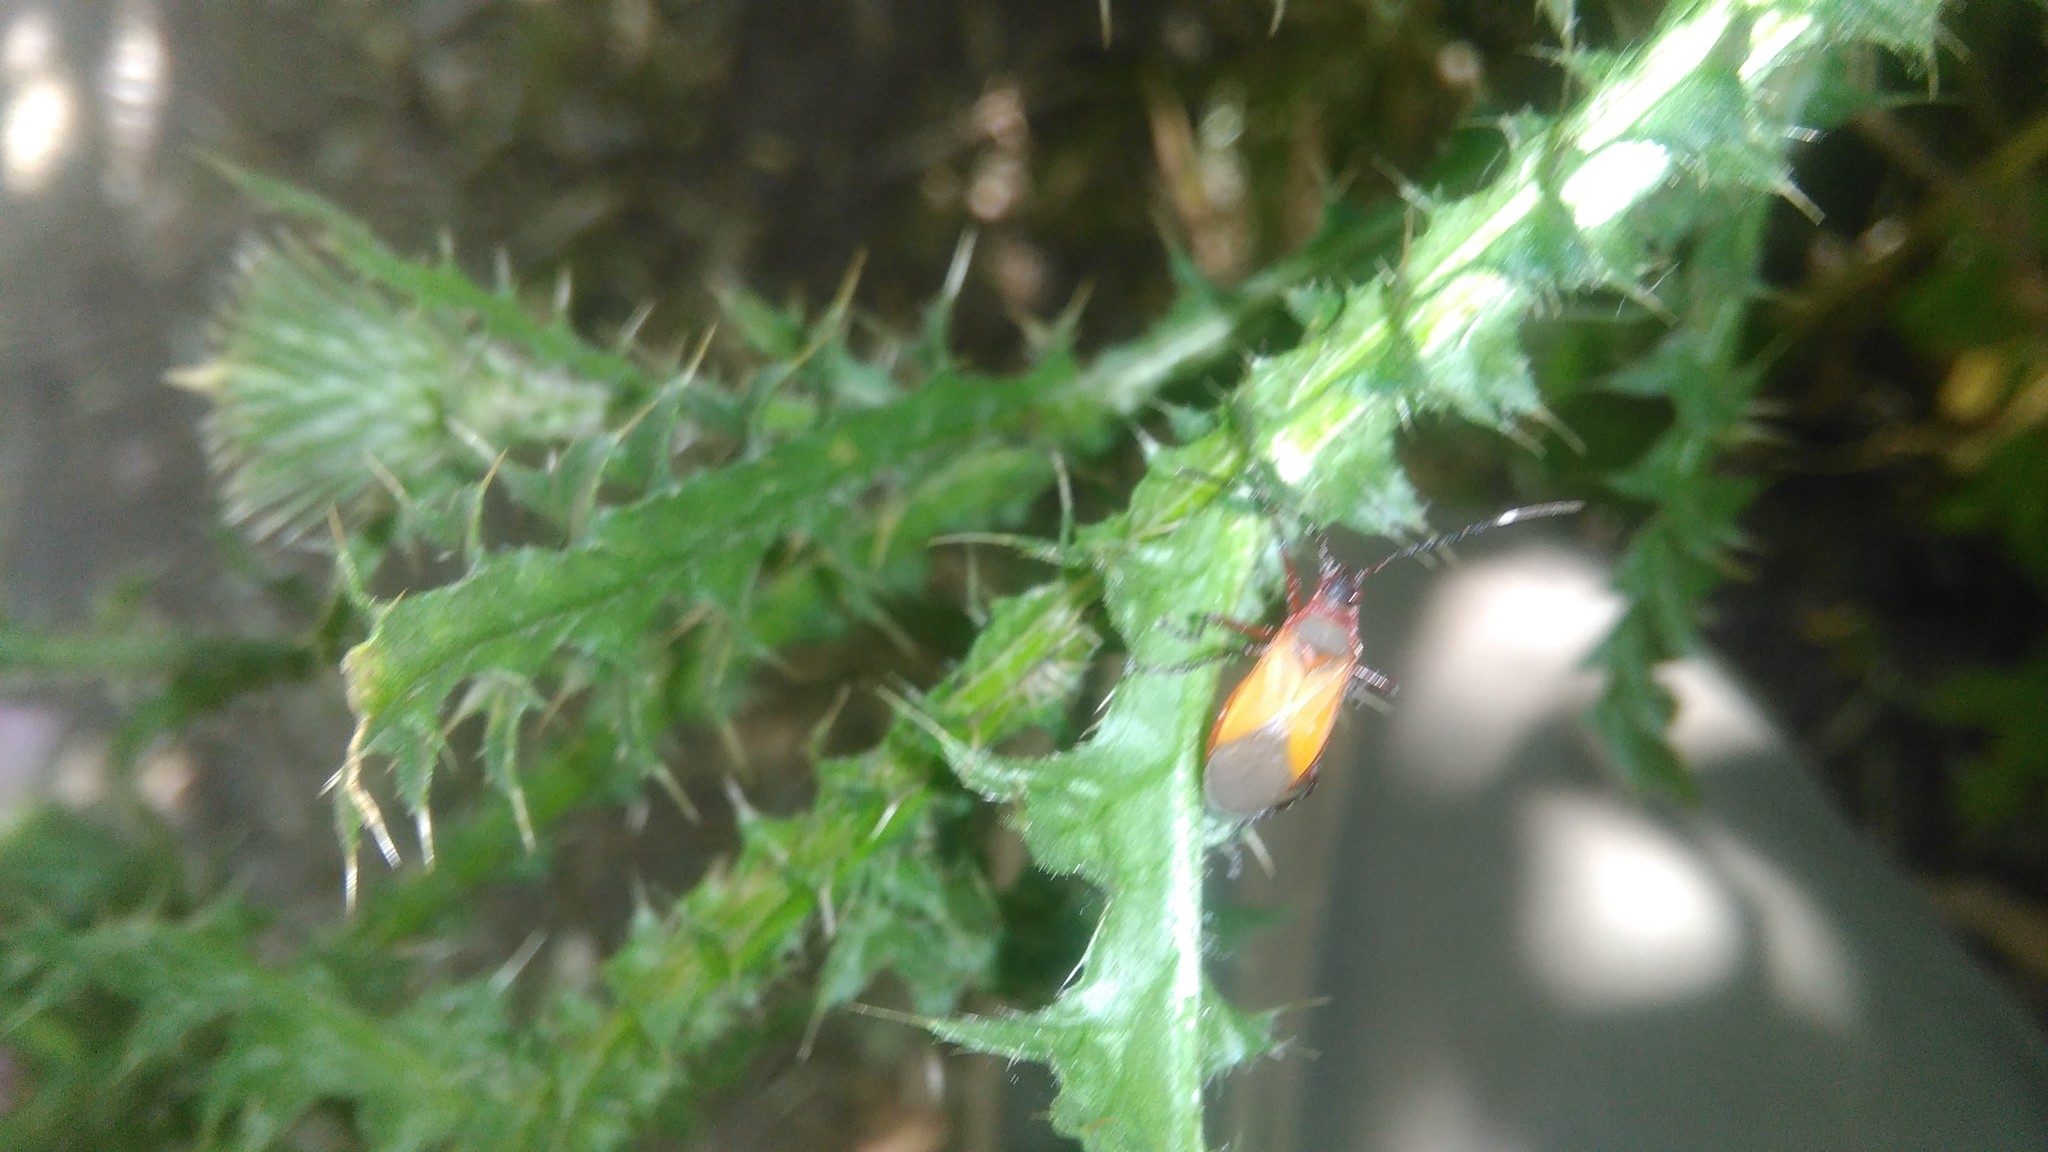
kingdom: Animalia
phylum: Arthropoda
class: Insecta
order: Hemiptera
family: Pyrrhocoridae
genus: Dysdercus
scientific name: Dysdercus
